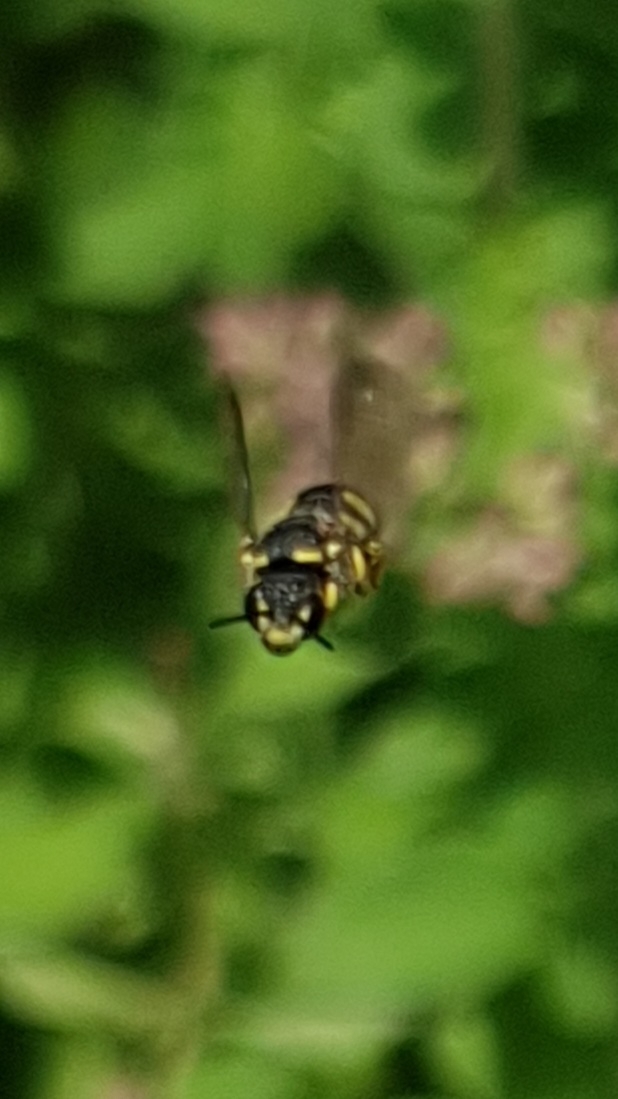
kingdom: Animalia
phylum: Arthropoda
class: Insecta
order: Hymenoptera
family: Megachilidae
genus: Stelis
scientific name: Stelis signata
